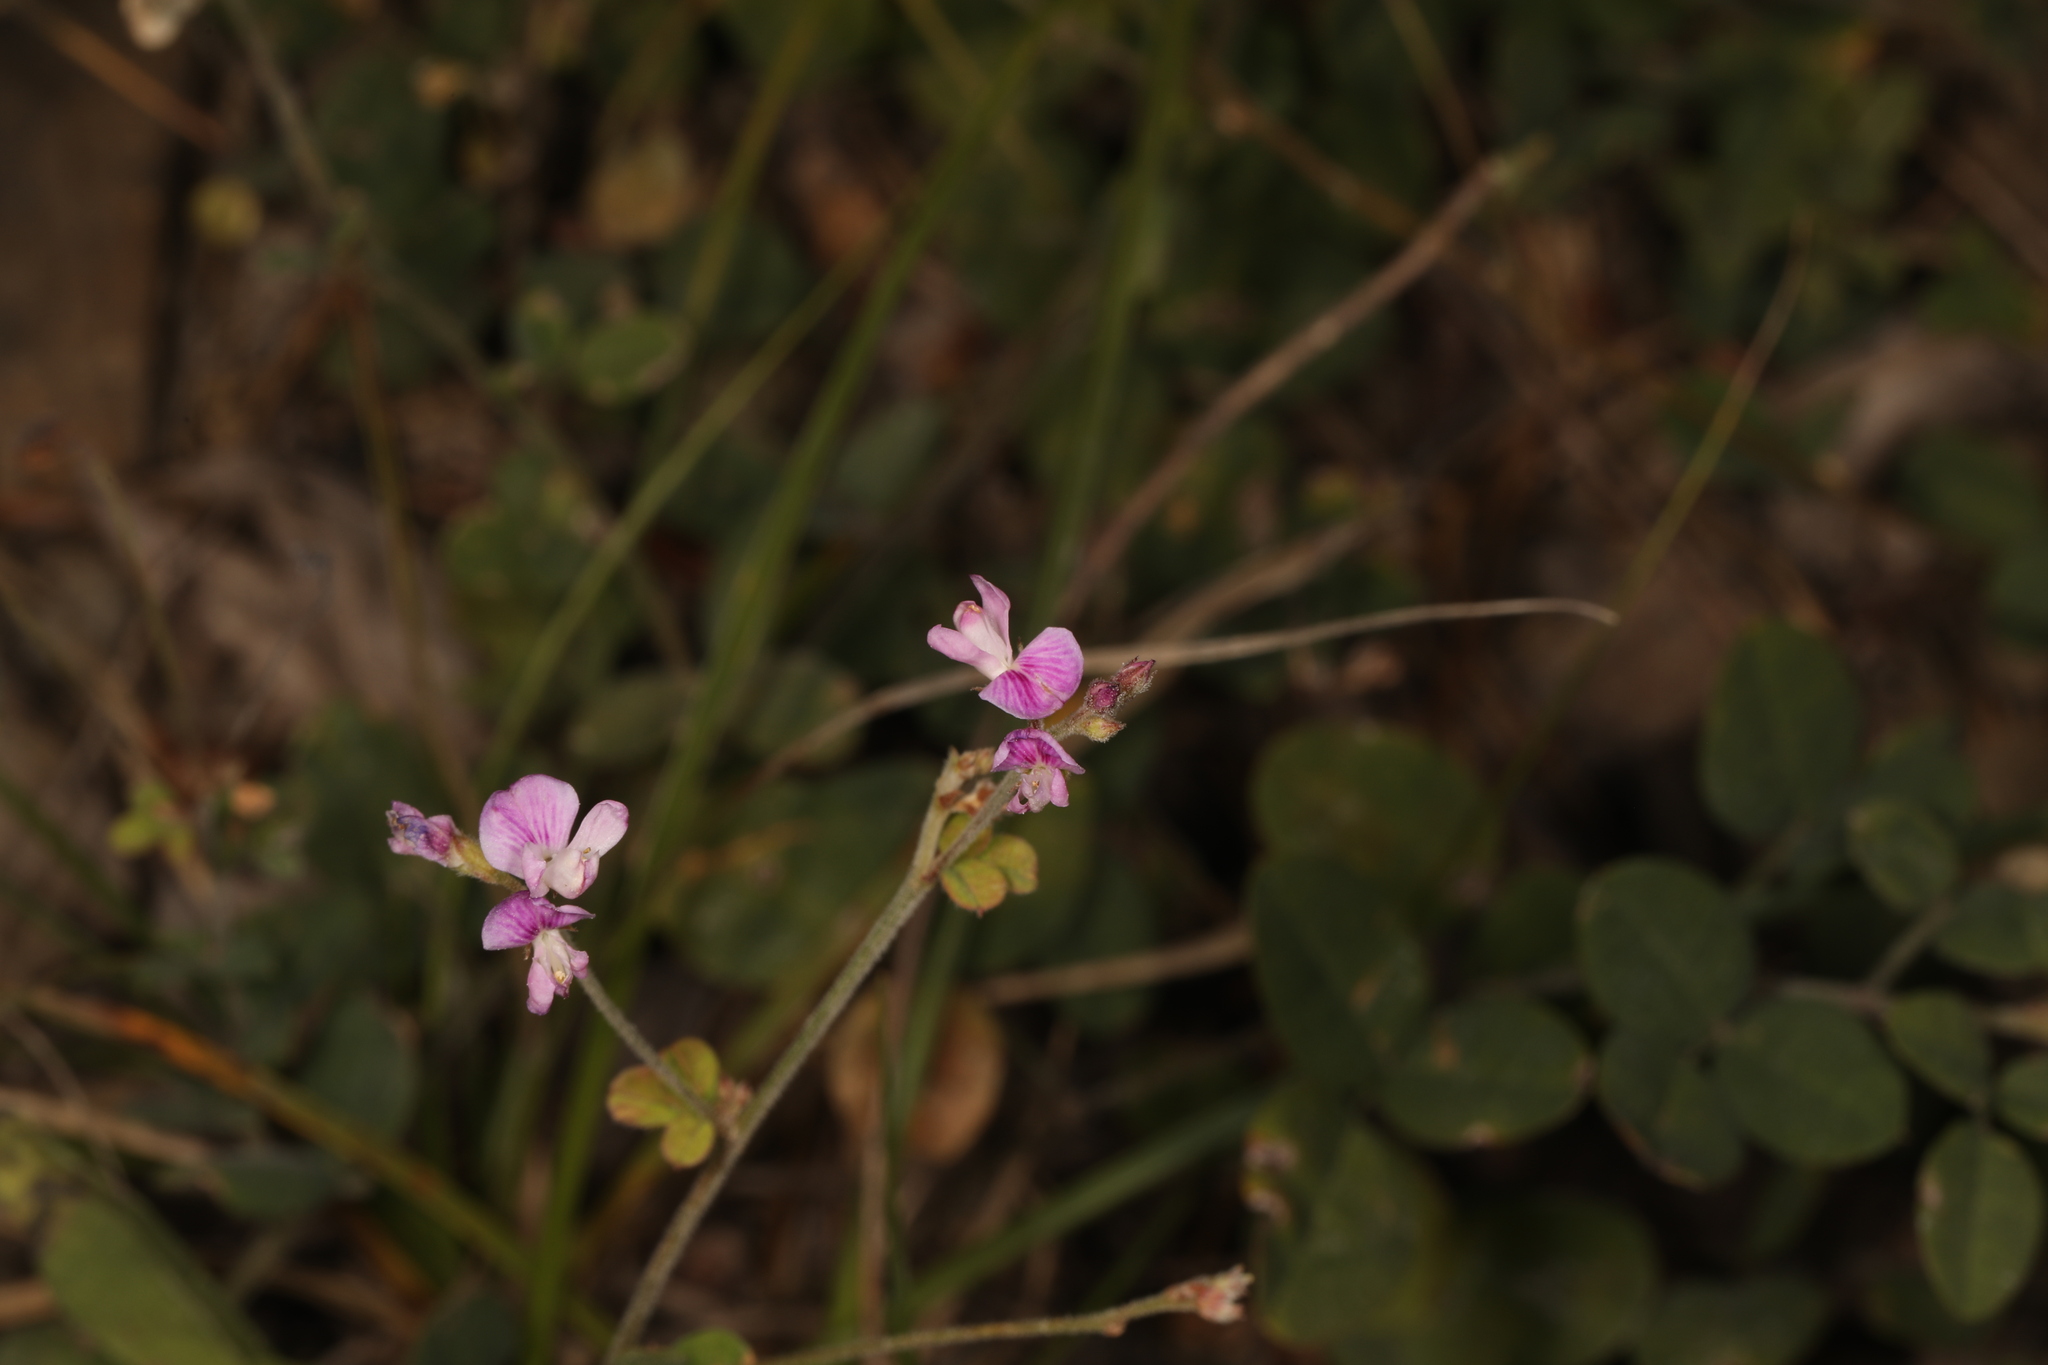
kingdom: Plantae
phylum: Tracheophyta
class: Magnoliopsida
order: Fabales
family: Fabaceae
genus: Lespedeza
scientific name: Lespedeza procumbens
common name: Downy trailing bush-clover
